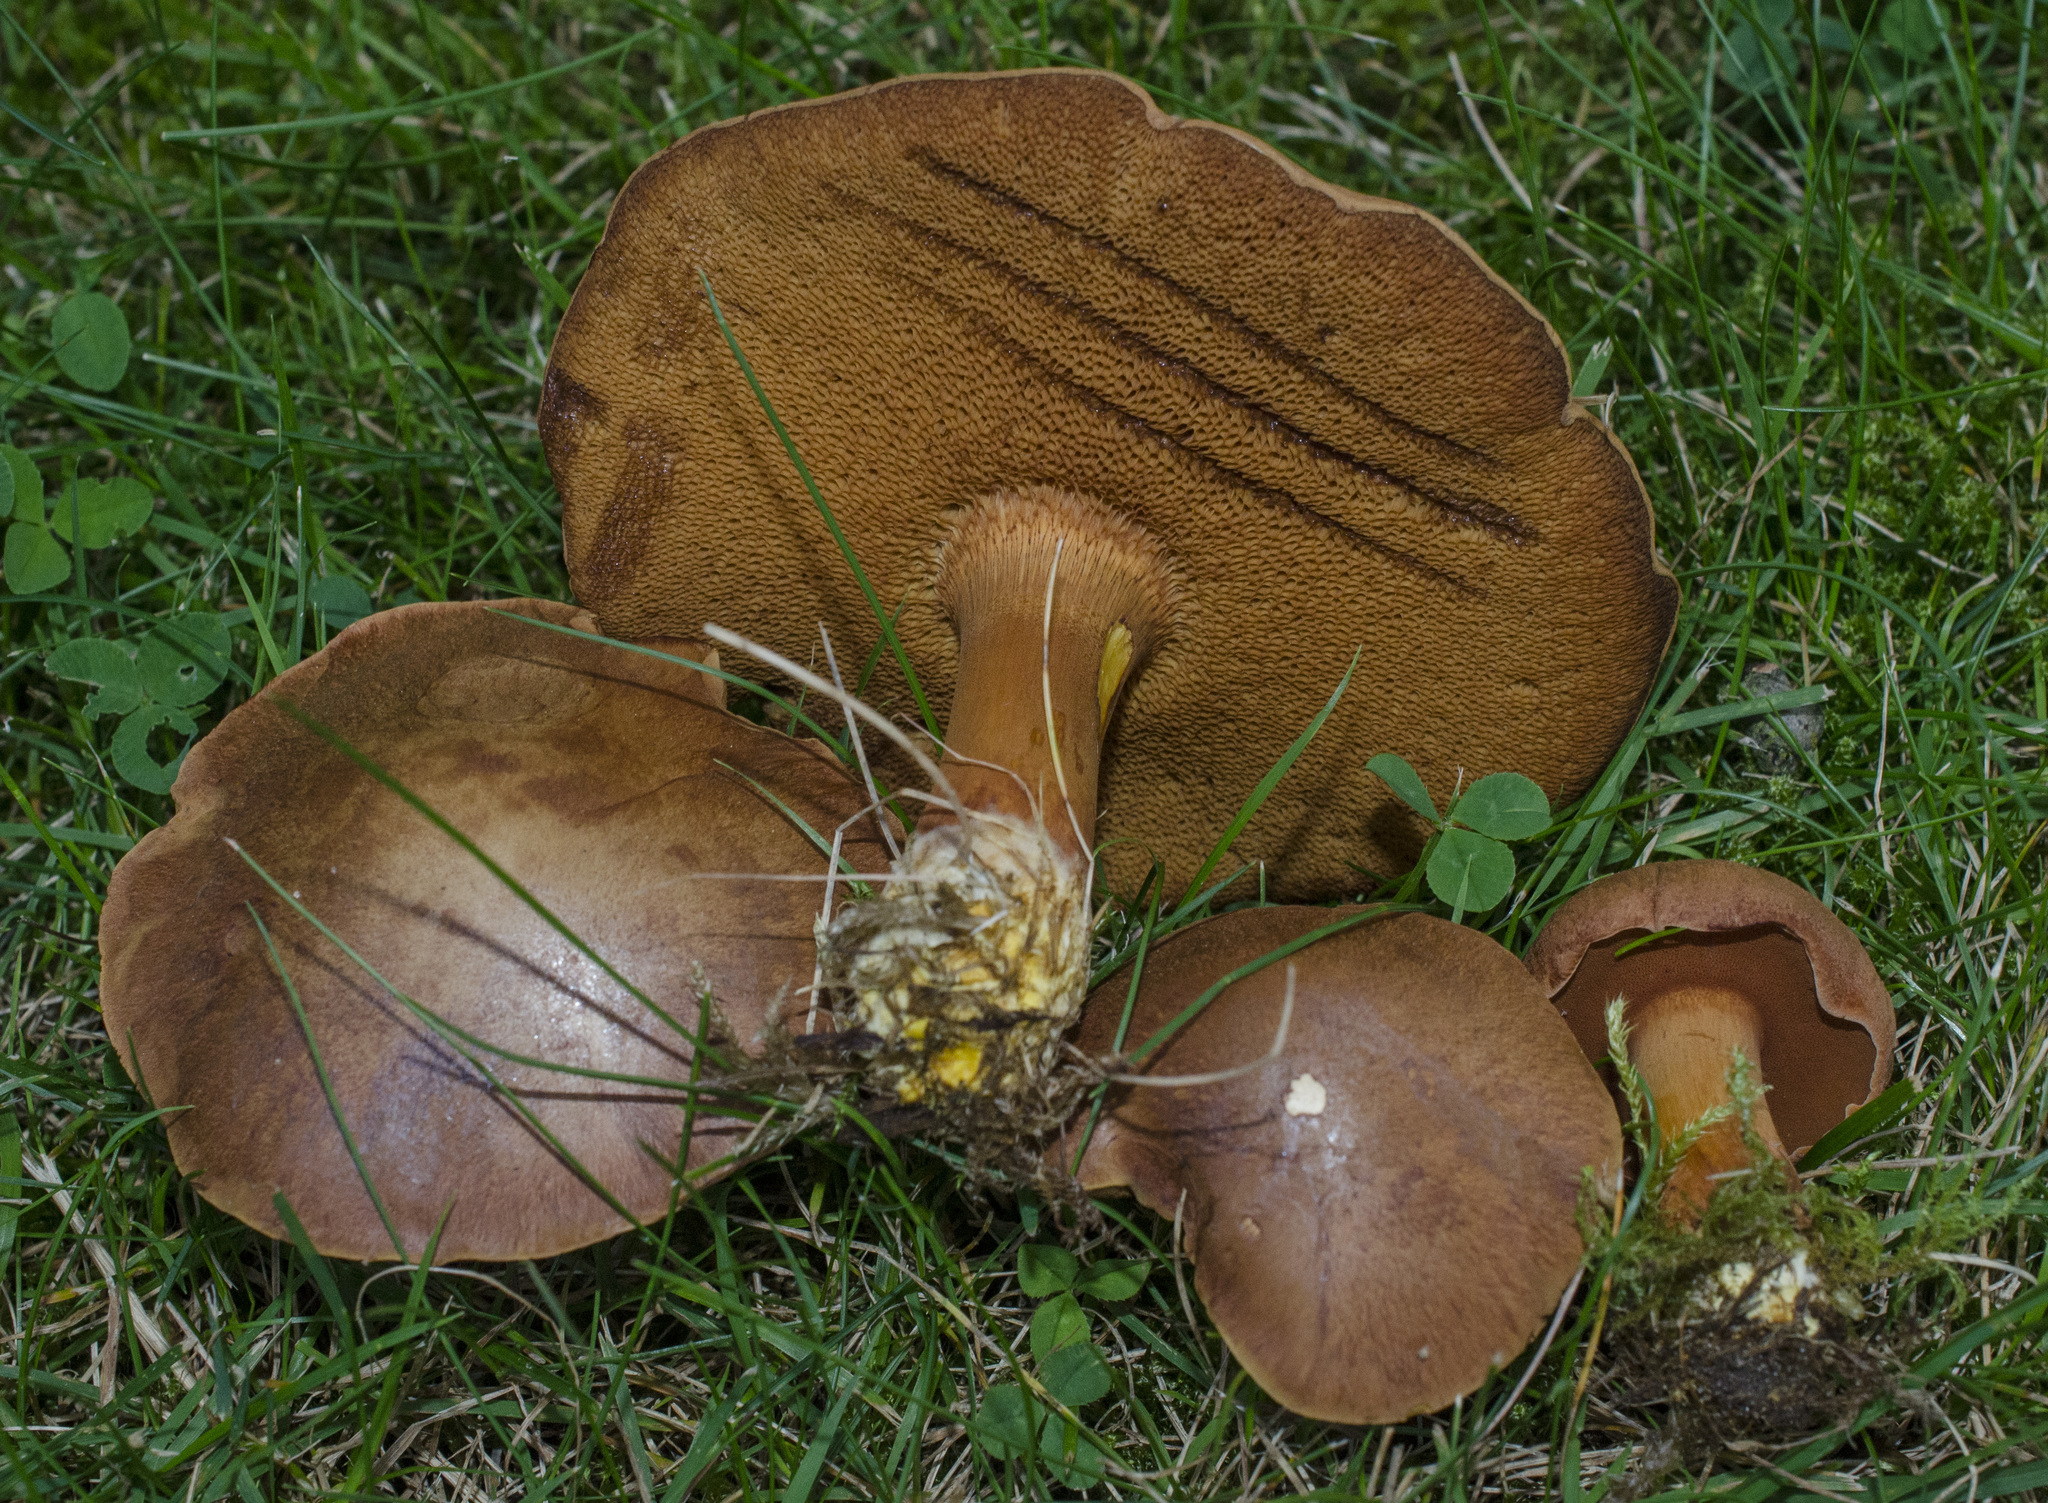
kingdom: Fungi
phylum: Basidiomycota
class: Agaricomycetes
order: Boletales
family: Boletaceae
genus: Chalciporus
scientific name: Chalciporus piperatus
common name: Peppery bolete
